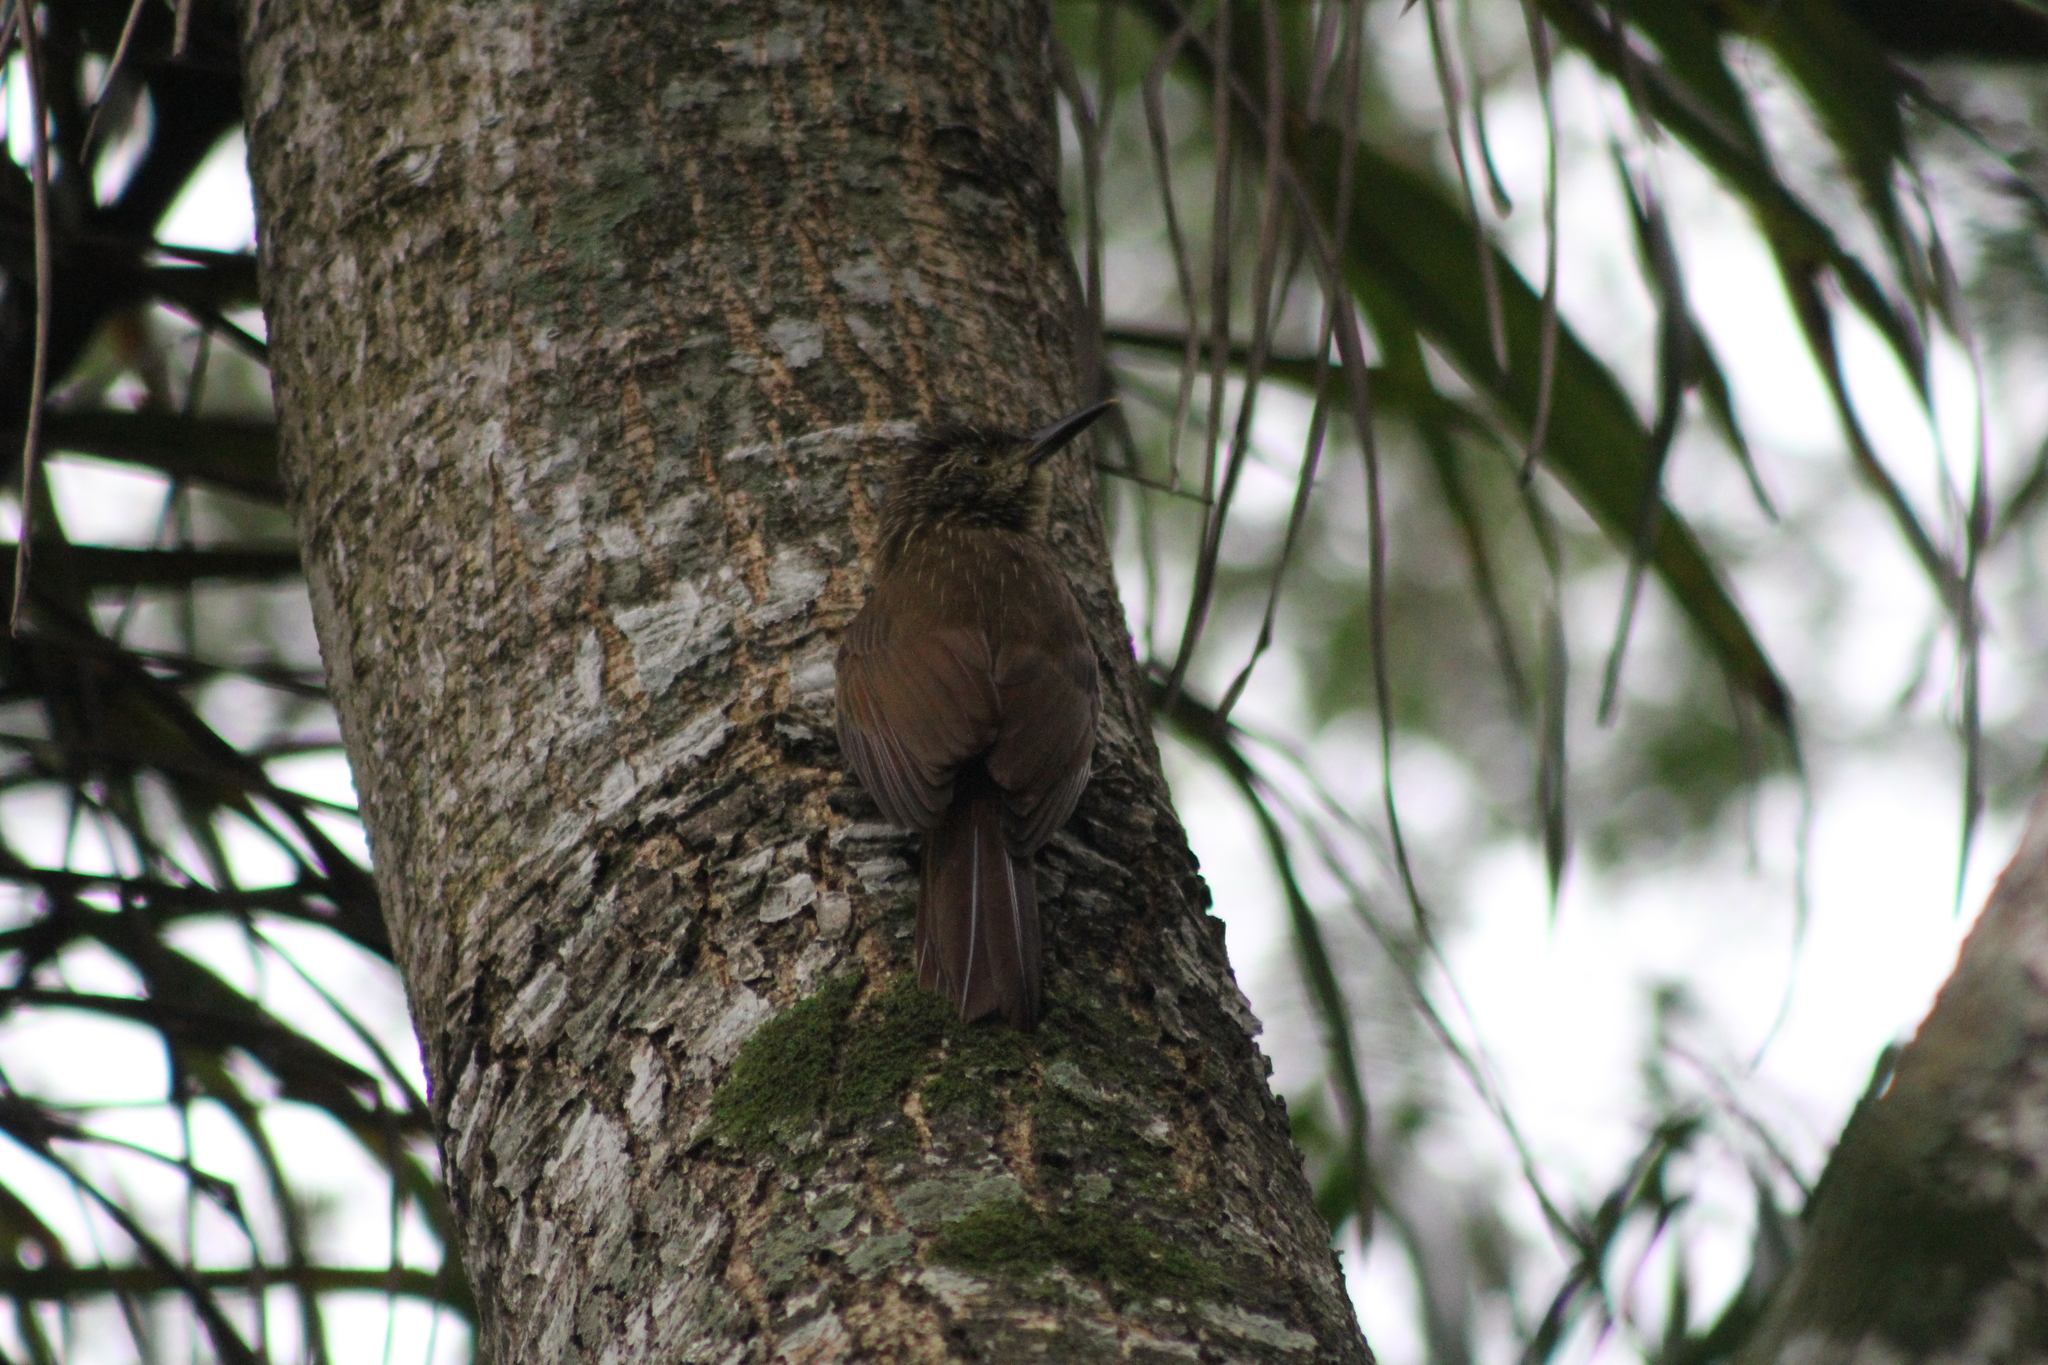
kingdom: Animalia
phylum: Chordata
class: Aves
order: Passeriformes
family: Furnariidae
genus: Dendrocolaptes
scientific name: Dendrocolaptes platyrostris
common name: Planalto woodcreeper
